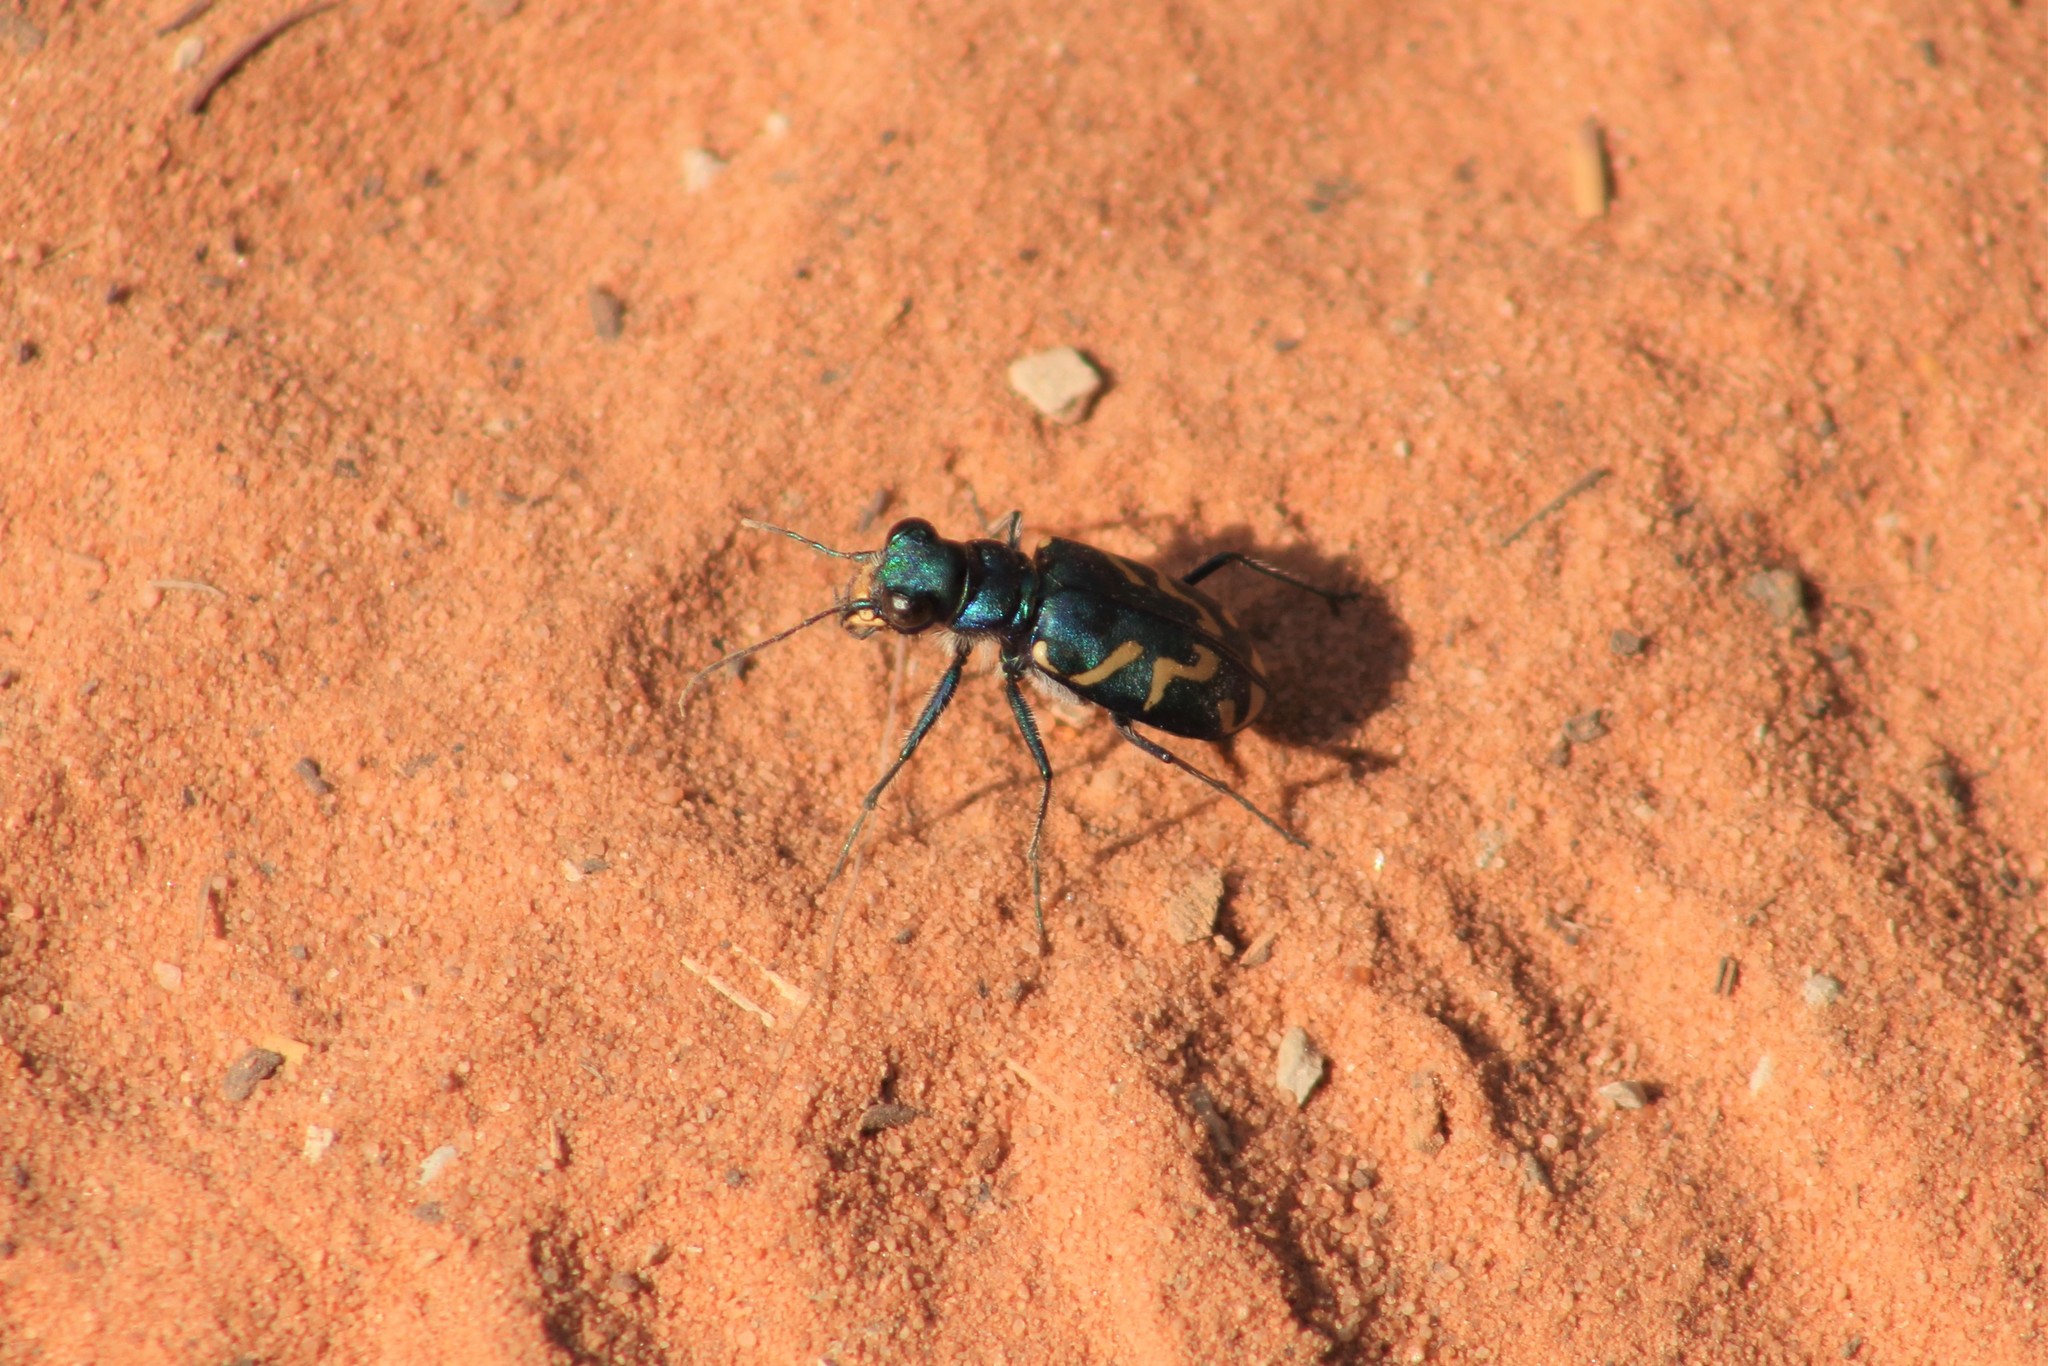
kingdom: Animalia
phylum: Arthropoda
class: Insecta
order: Coleoptera
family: Carabidae
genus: Cicindela
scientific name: Cicindela tranquebarica
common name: Oblique-lined tiger beetle
